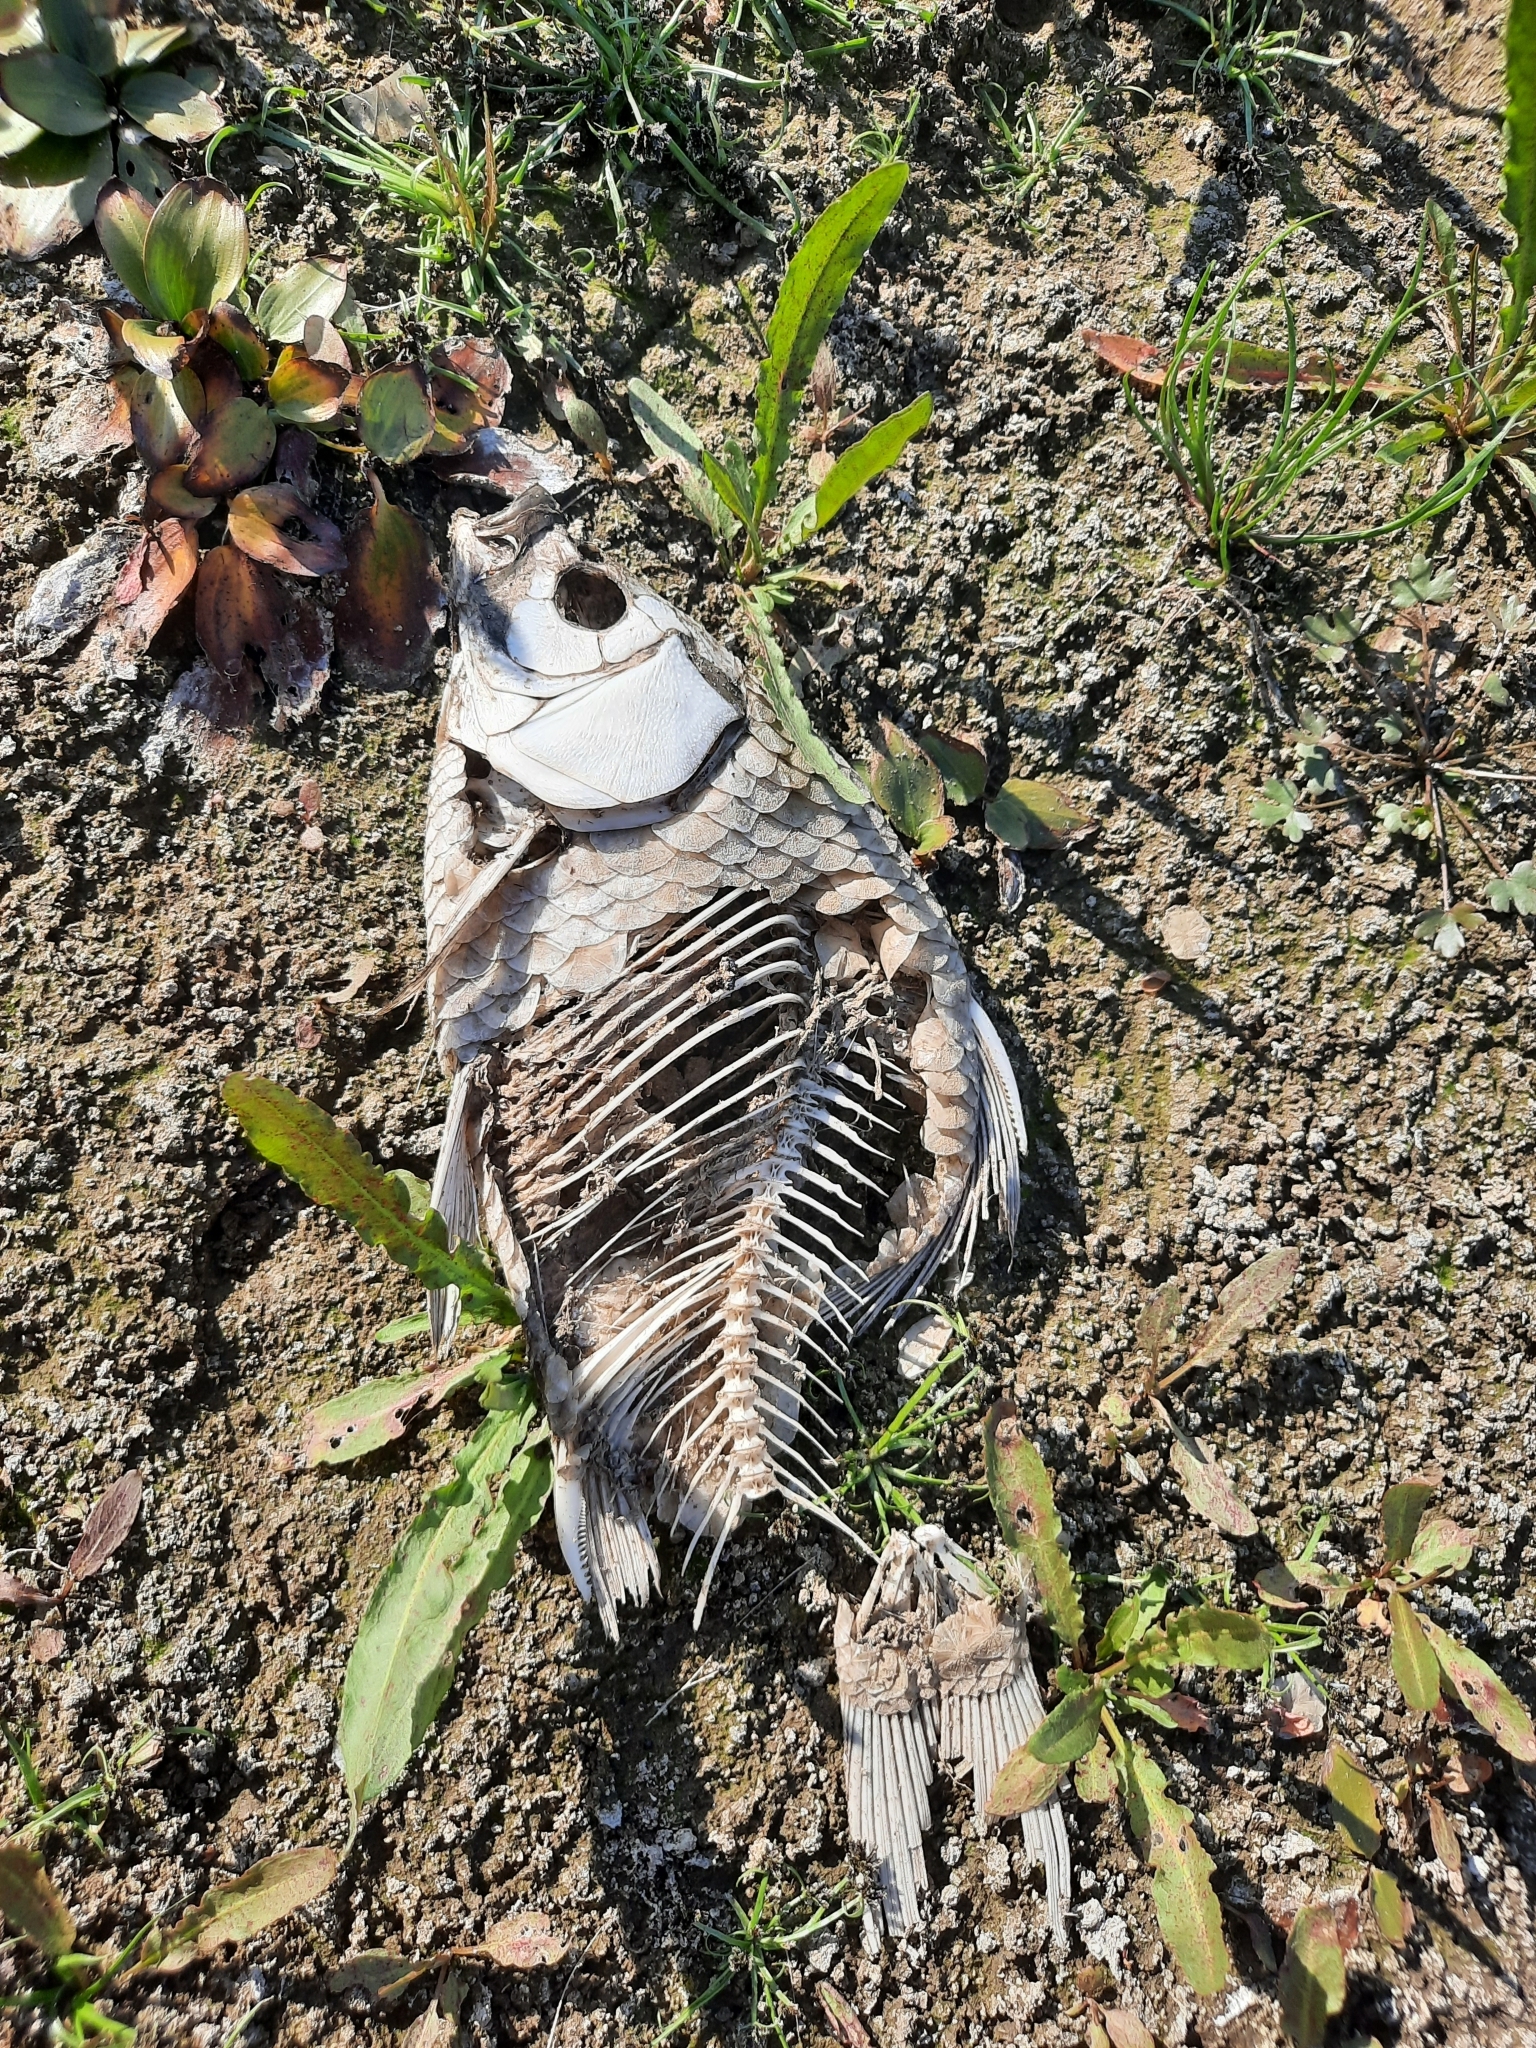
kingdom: Animalia
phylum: Chordata
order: Cypriniformes
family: Cyprinidae
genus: Carassius
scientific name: Carassius gibelio
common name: Prussian carp
